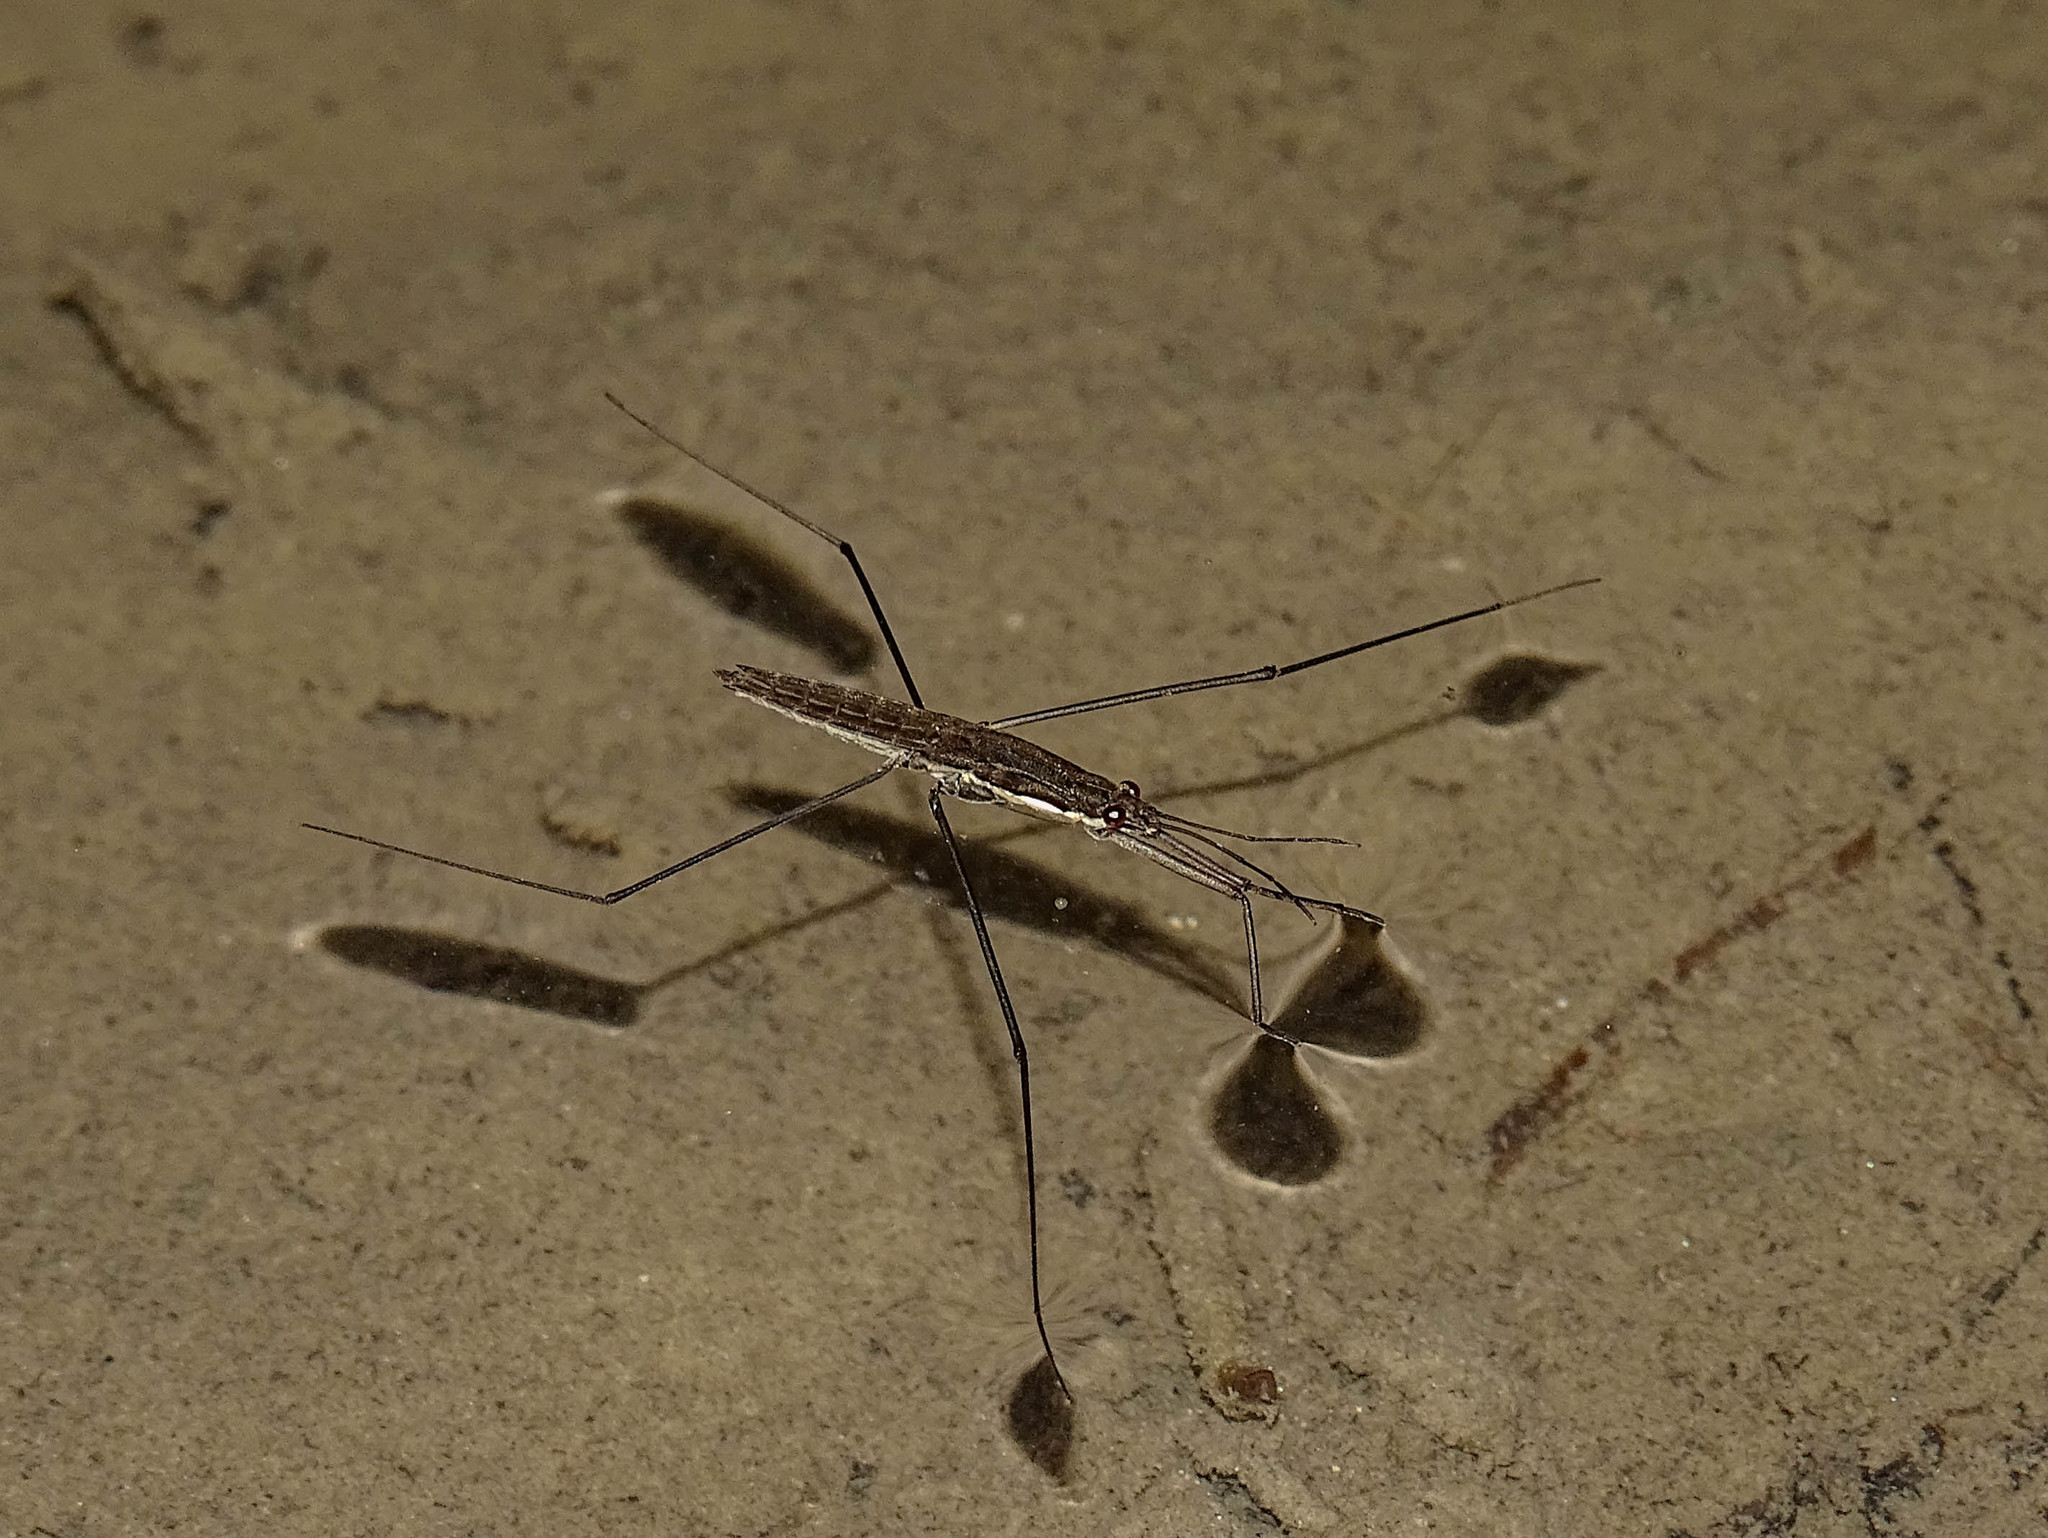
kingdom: Animalia
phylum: Arthropoda
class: Insecta
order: Hemiptera
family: Gerridae
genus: Aquarius
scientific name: Aquarius najas
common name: River skater
